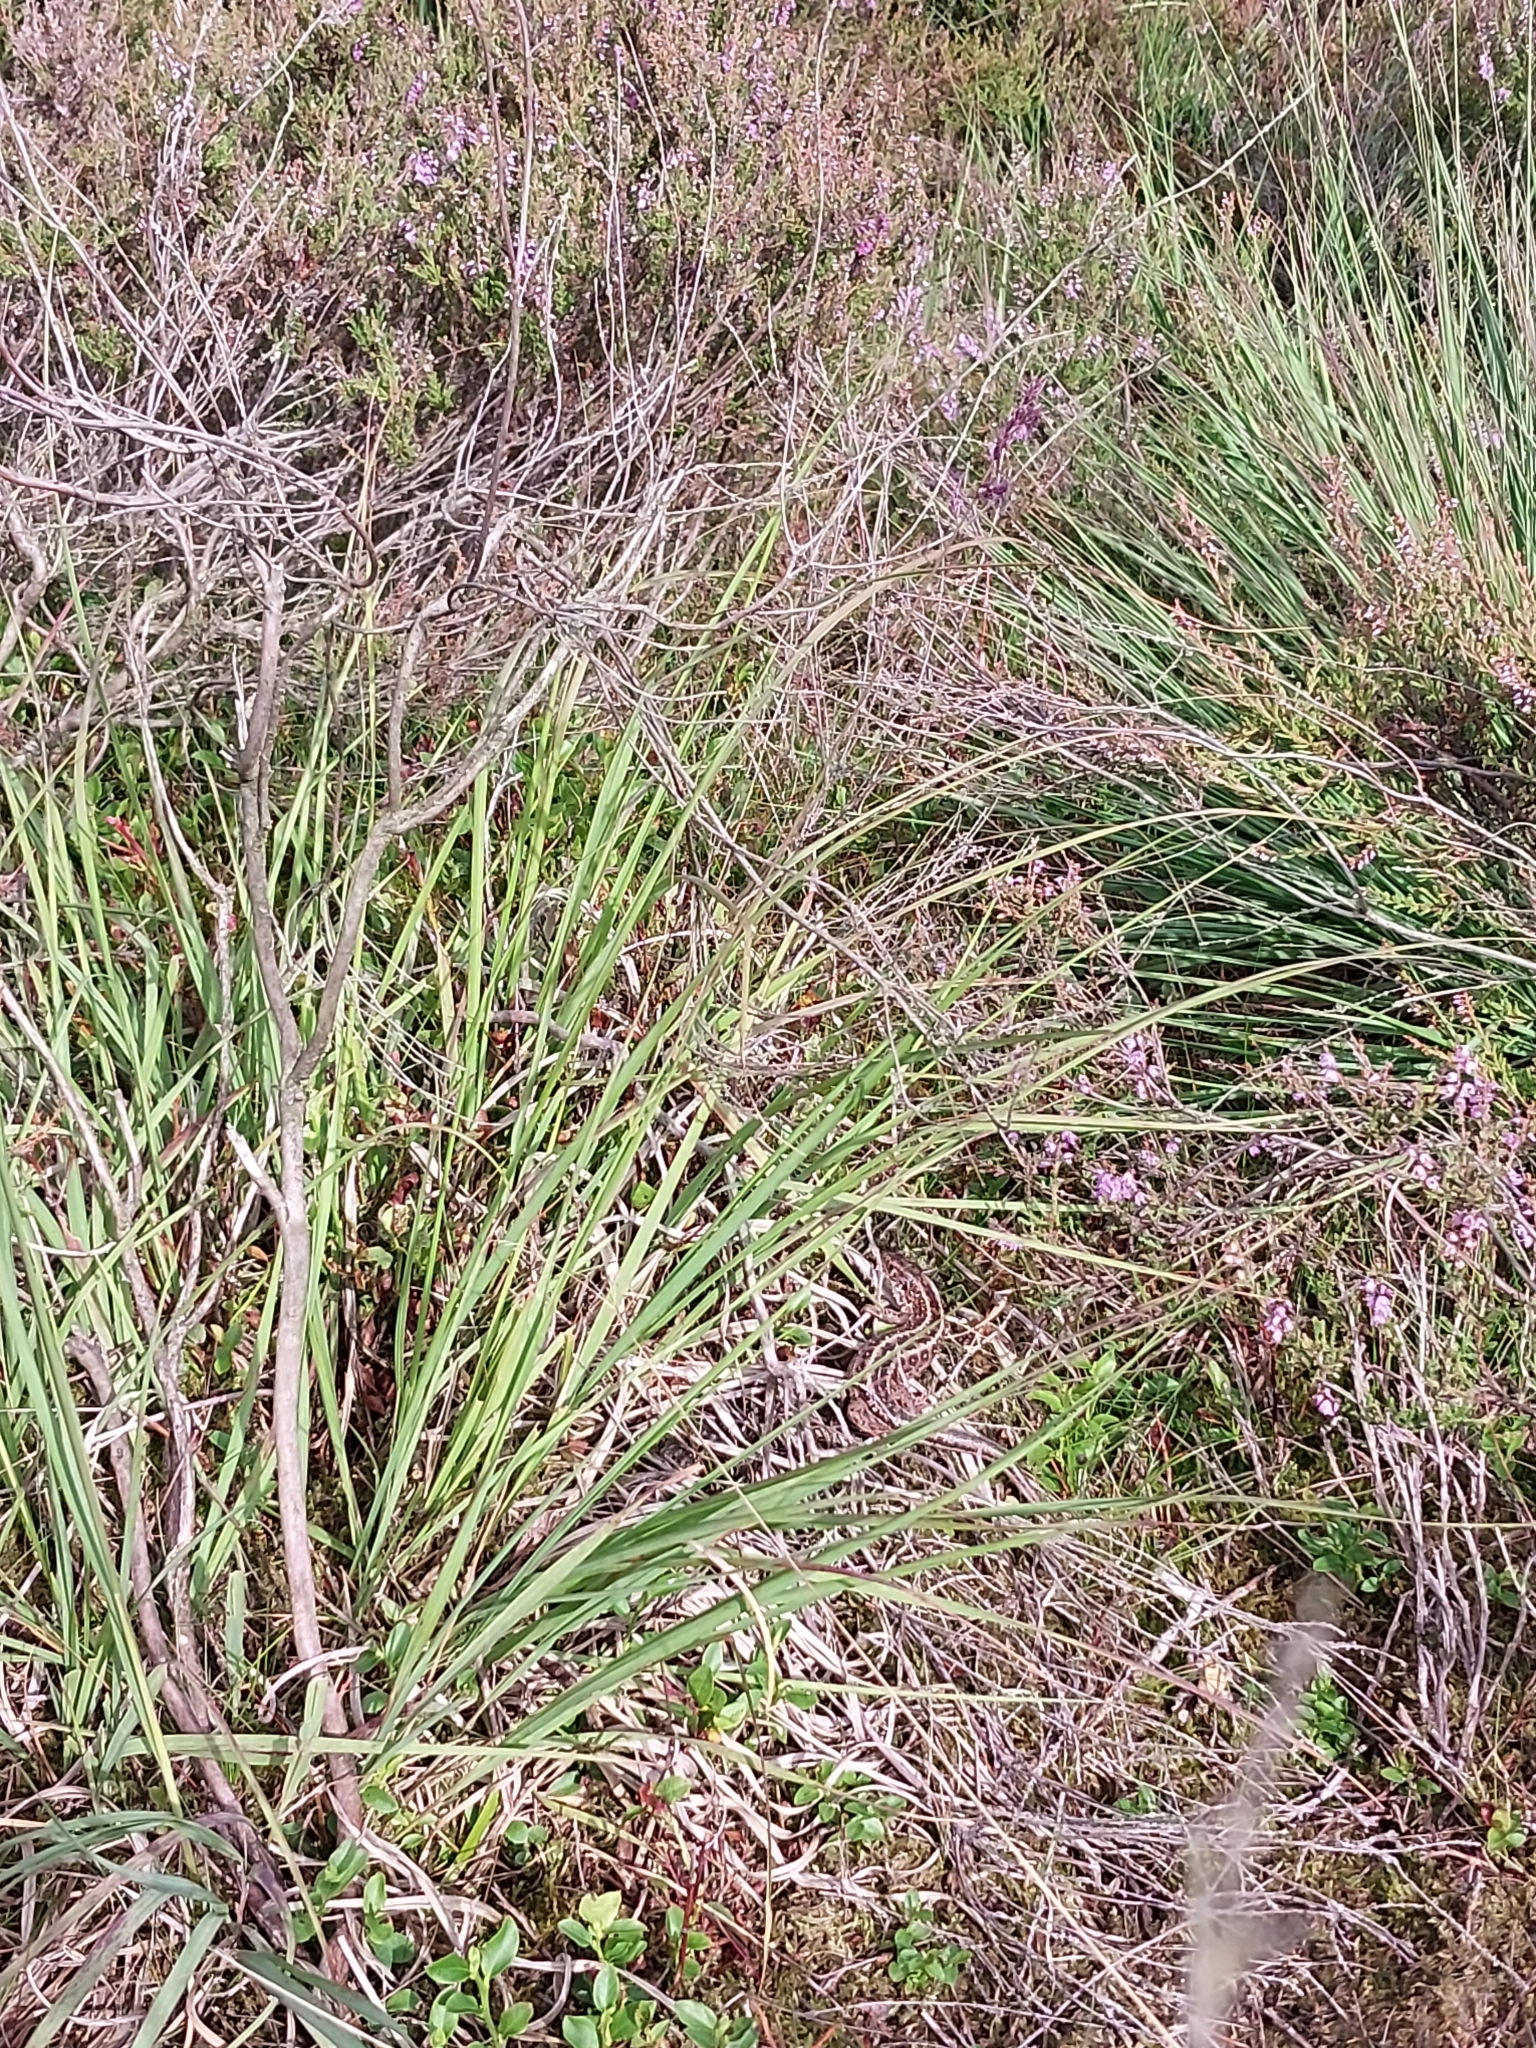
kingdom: Animalia
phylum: Chordata
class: Squamata
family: Lacertidae
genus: Lacerta
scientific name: Lacerta agilis
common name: Sand lizard
